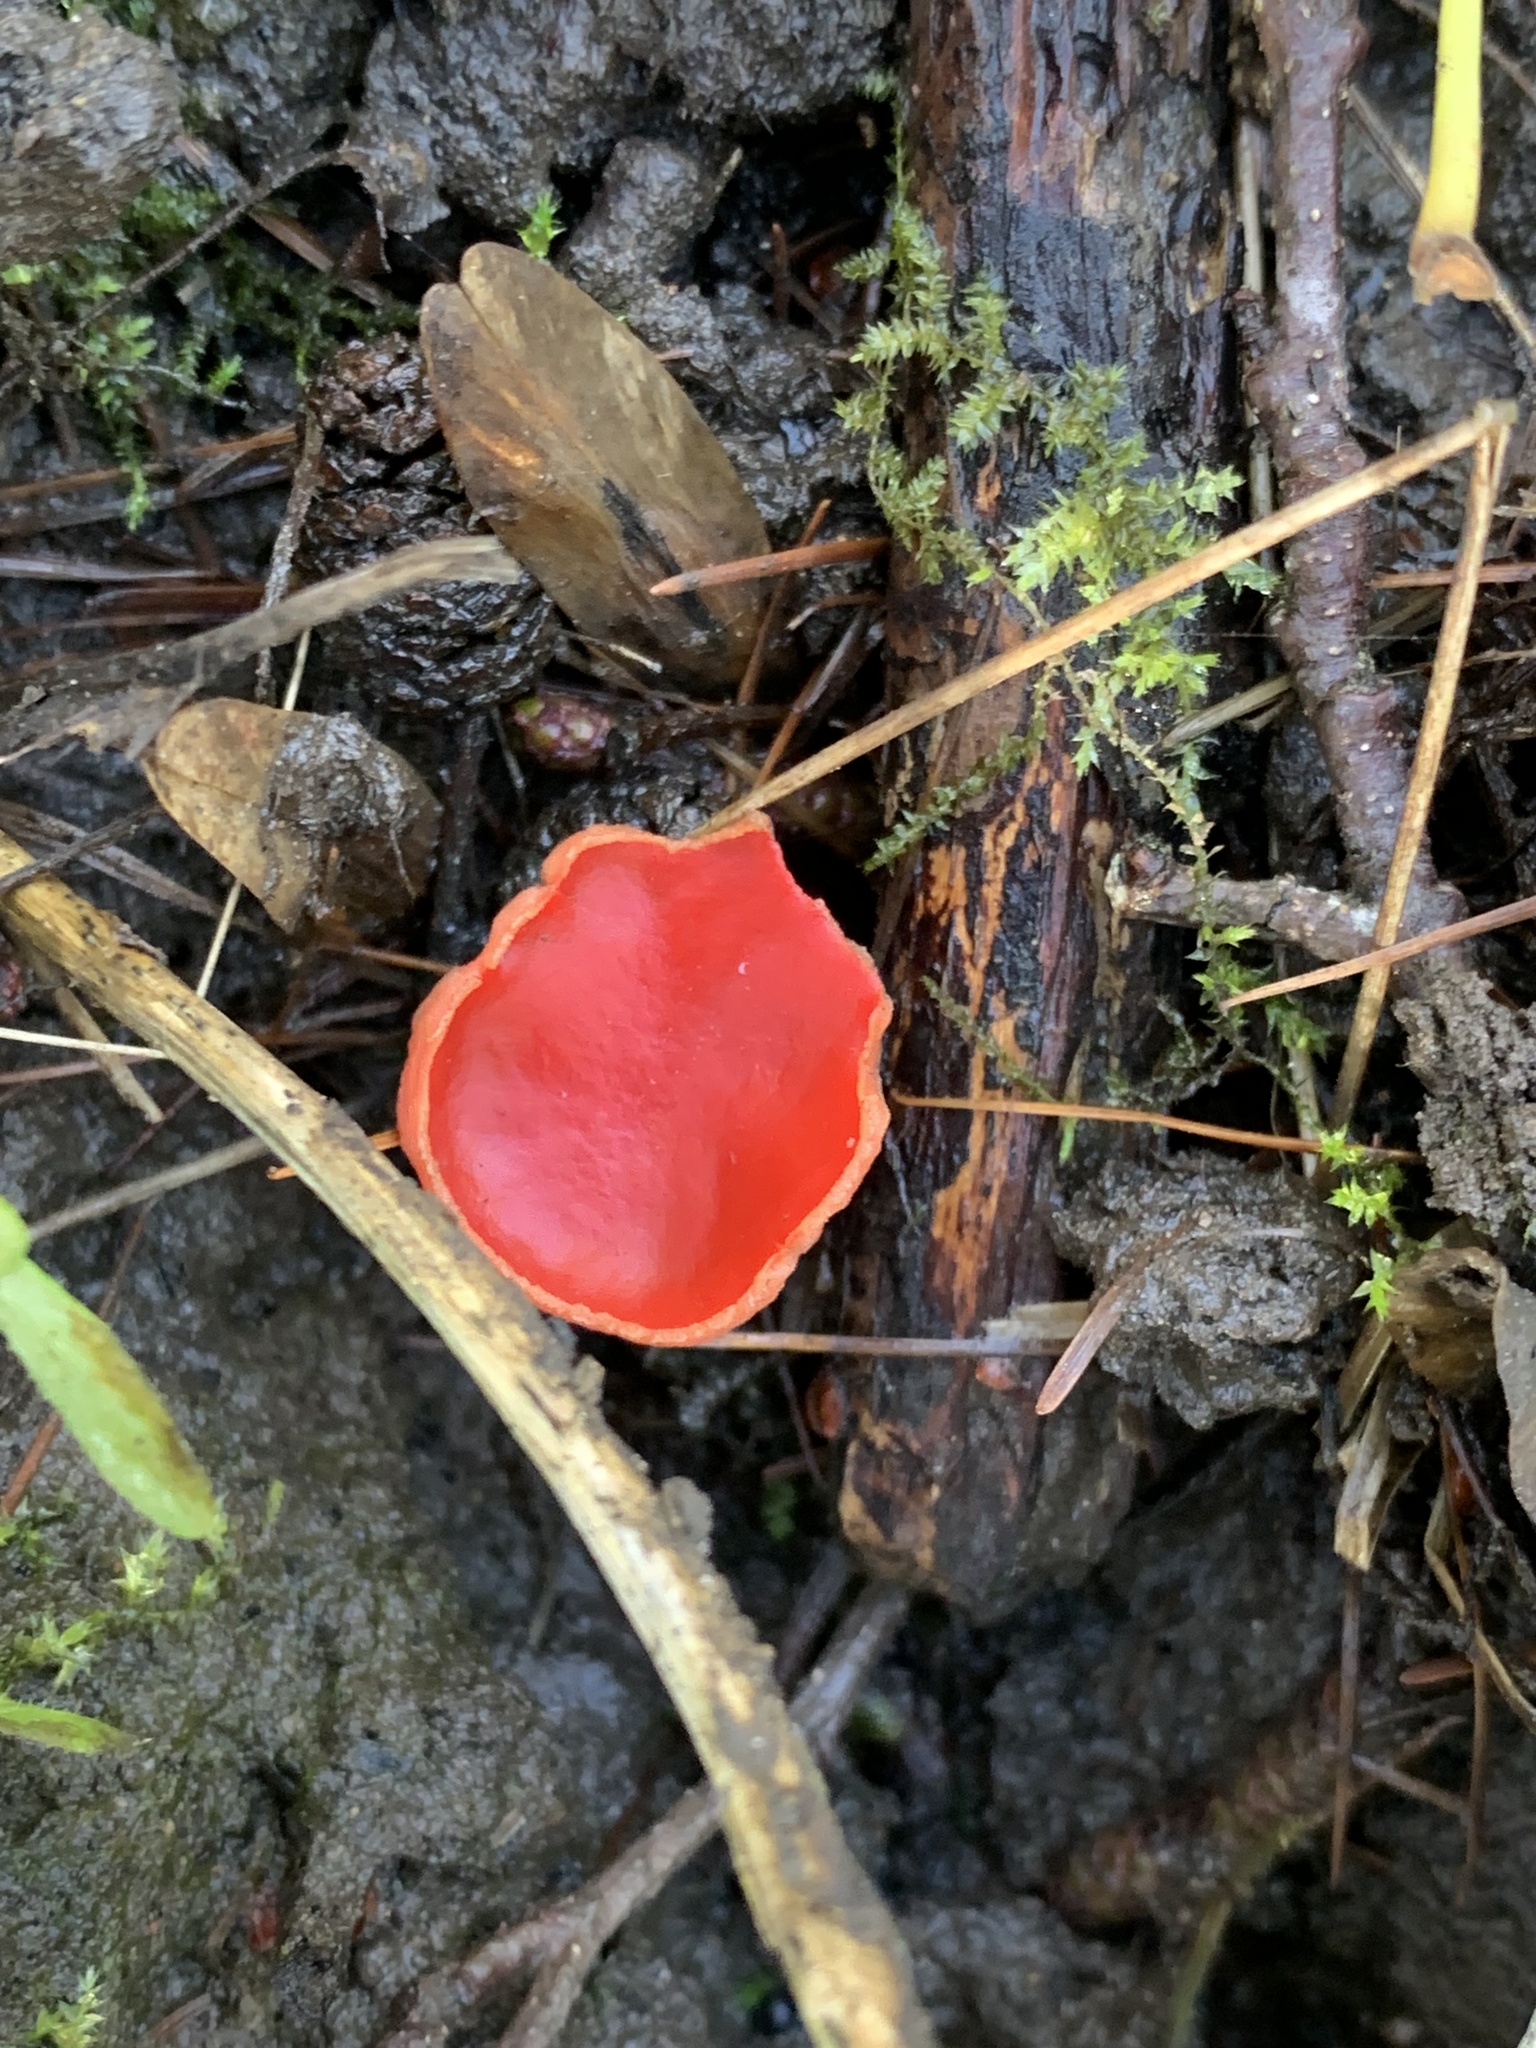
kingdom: Fungi
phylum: Ascomycota
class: Pezizomycetes
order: Pezizales
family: Sarcoscyphaceae
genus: Sarcoscypha
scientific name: Sarcoscypha
